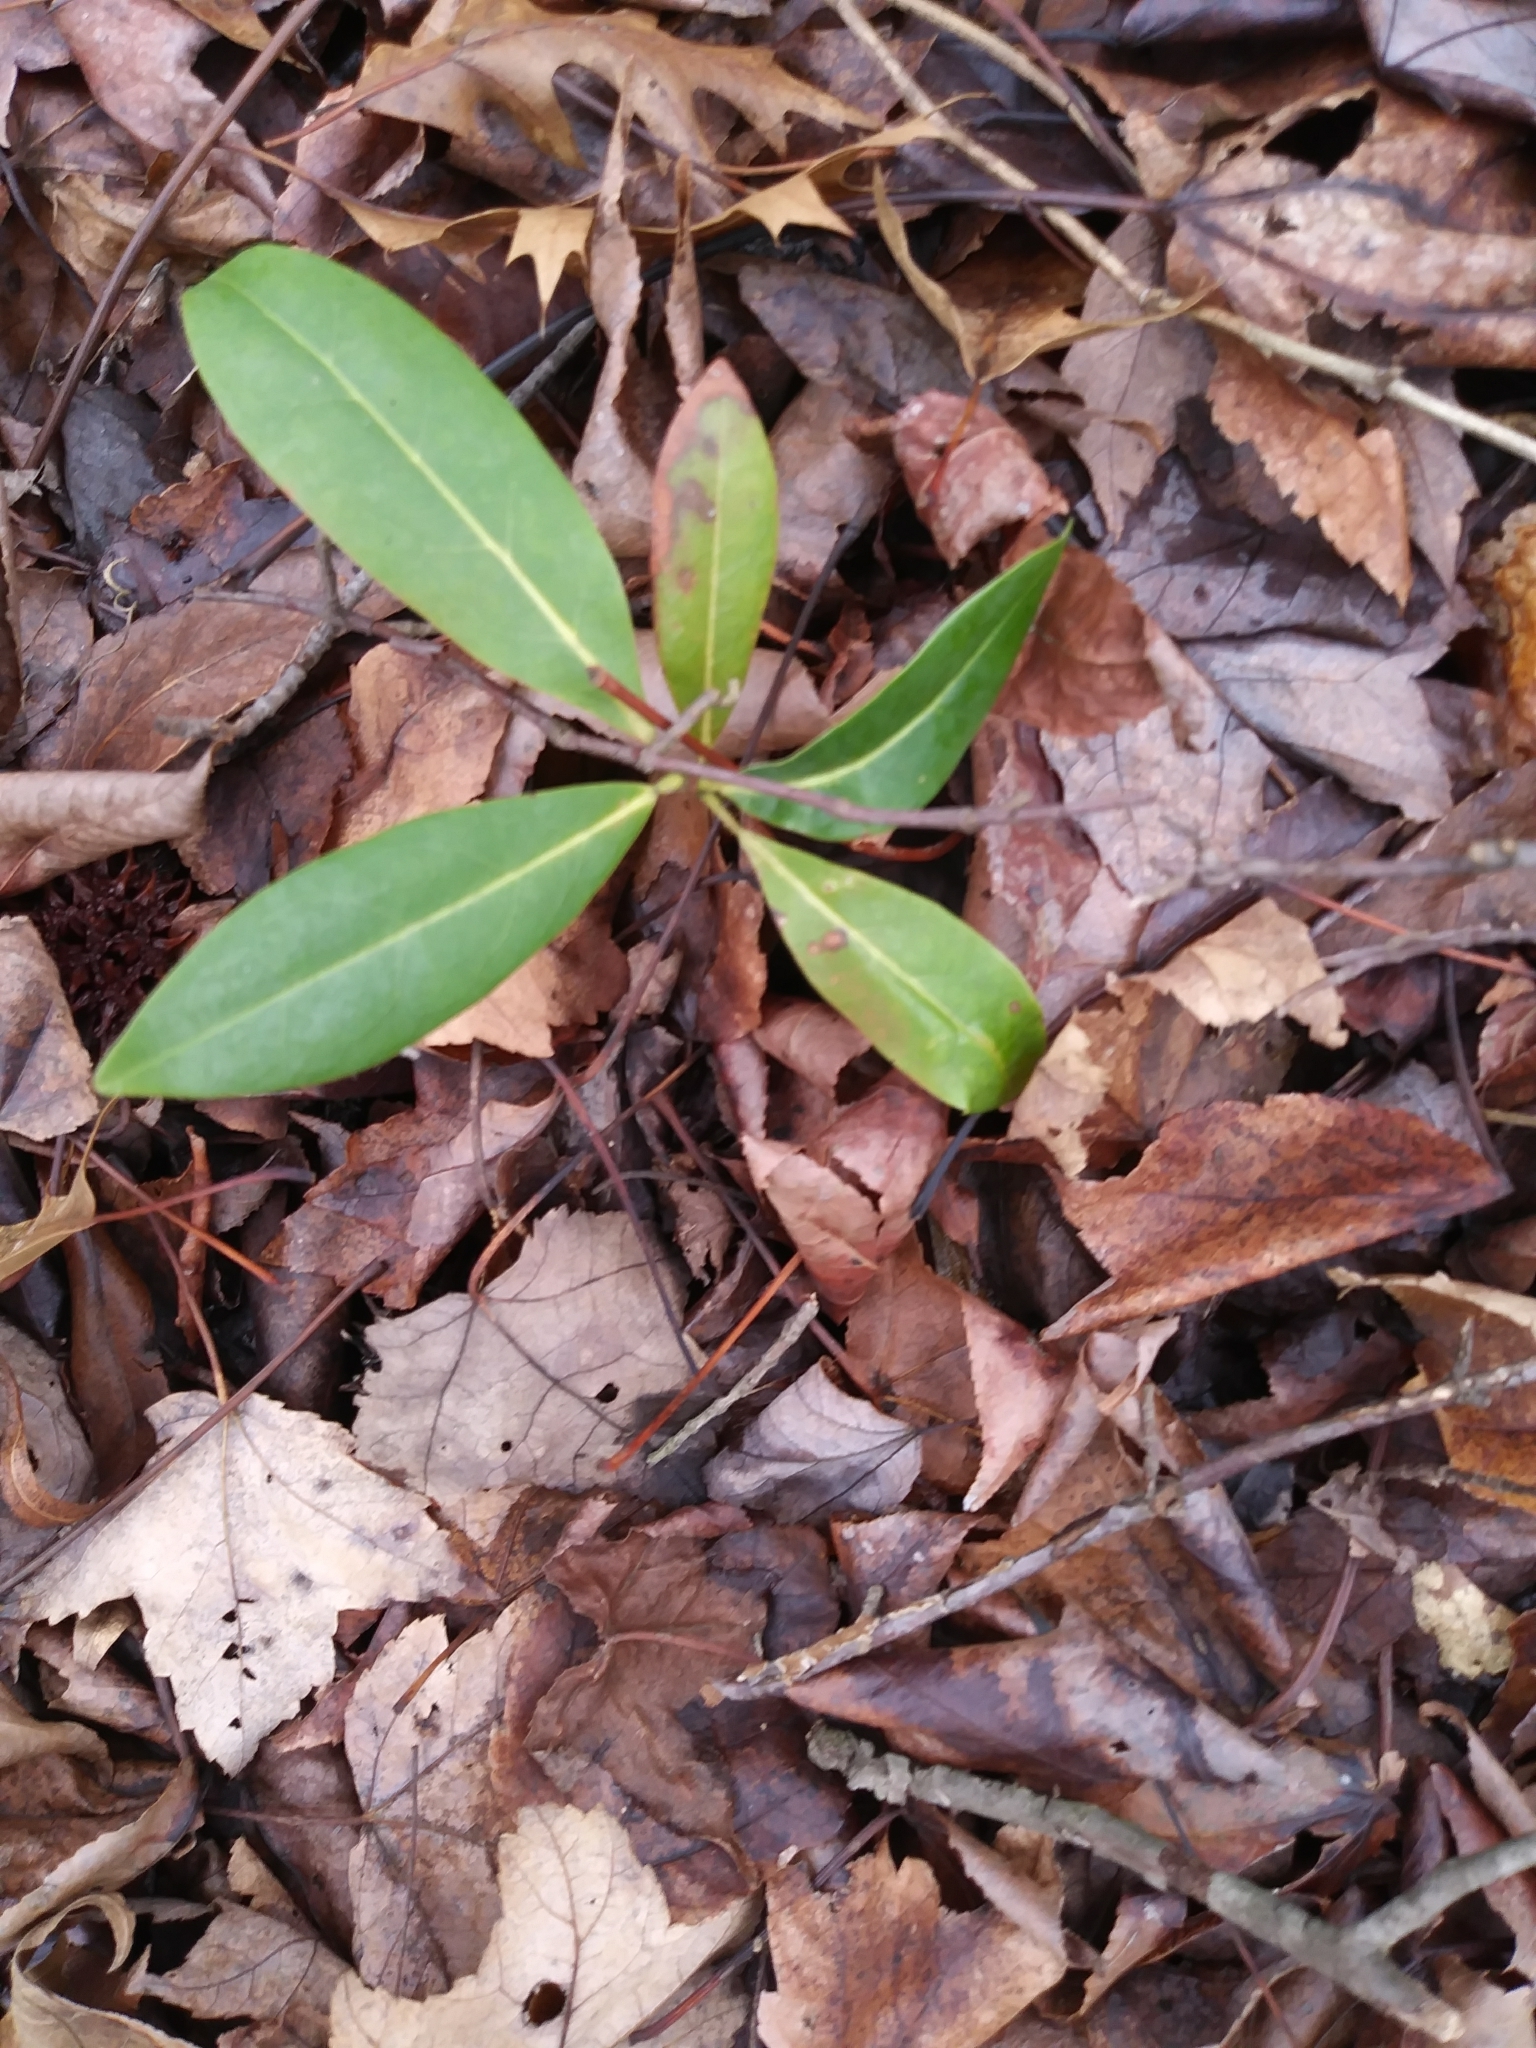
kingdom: Plantae
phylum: Tracheophyta
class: Magnoliopsida
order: Ericales
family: Ericaceae
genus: Kalmia
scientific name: Kalmia latifolia
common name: Mountain-laurel
